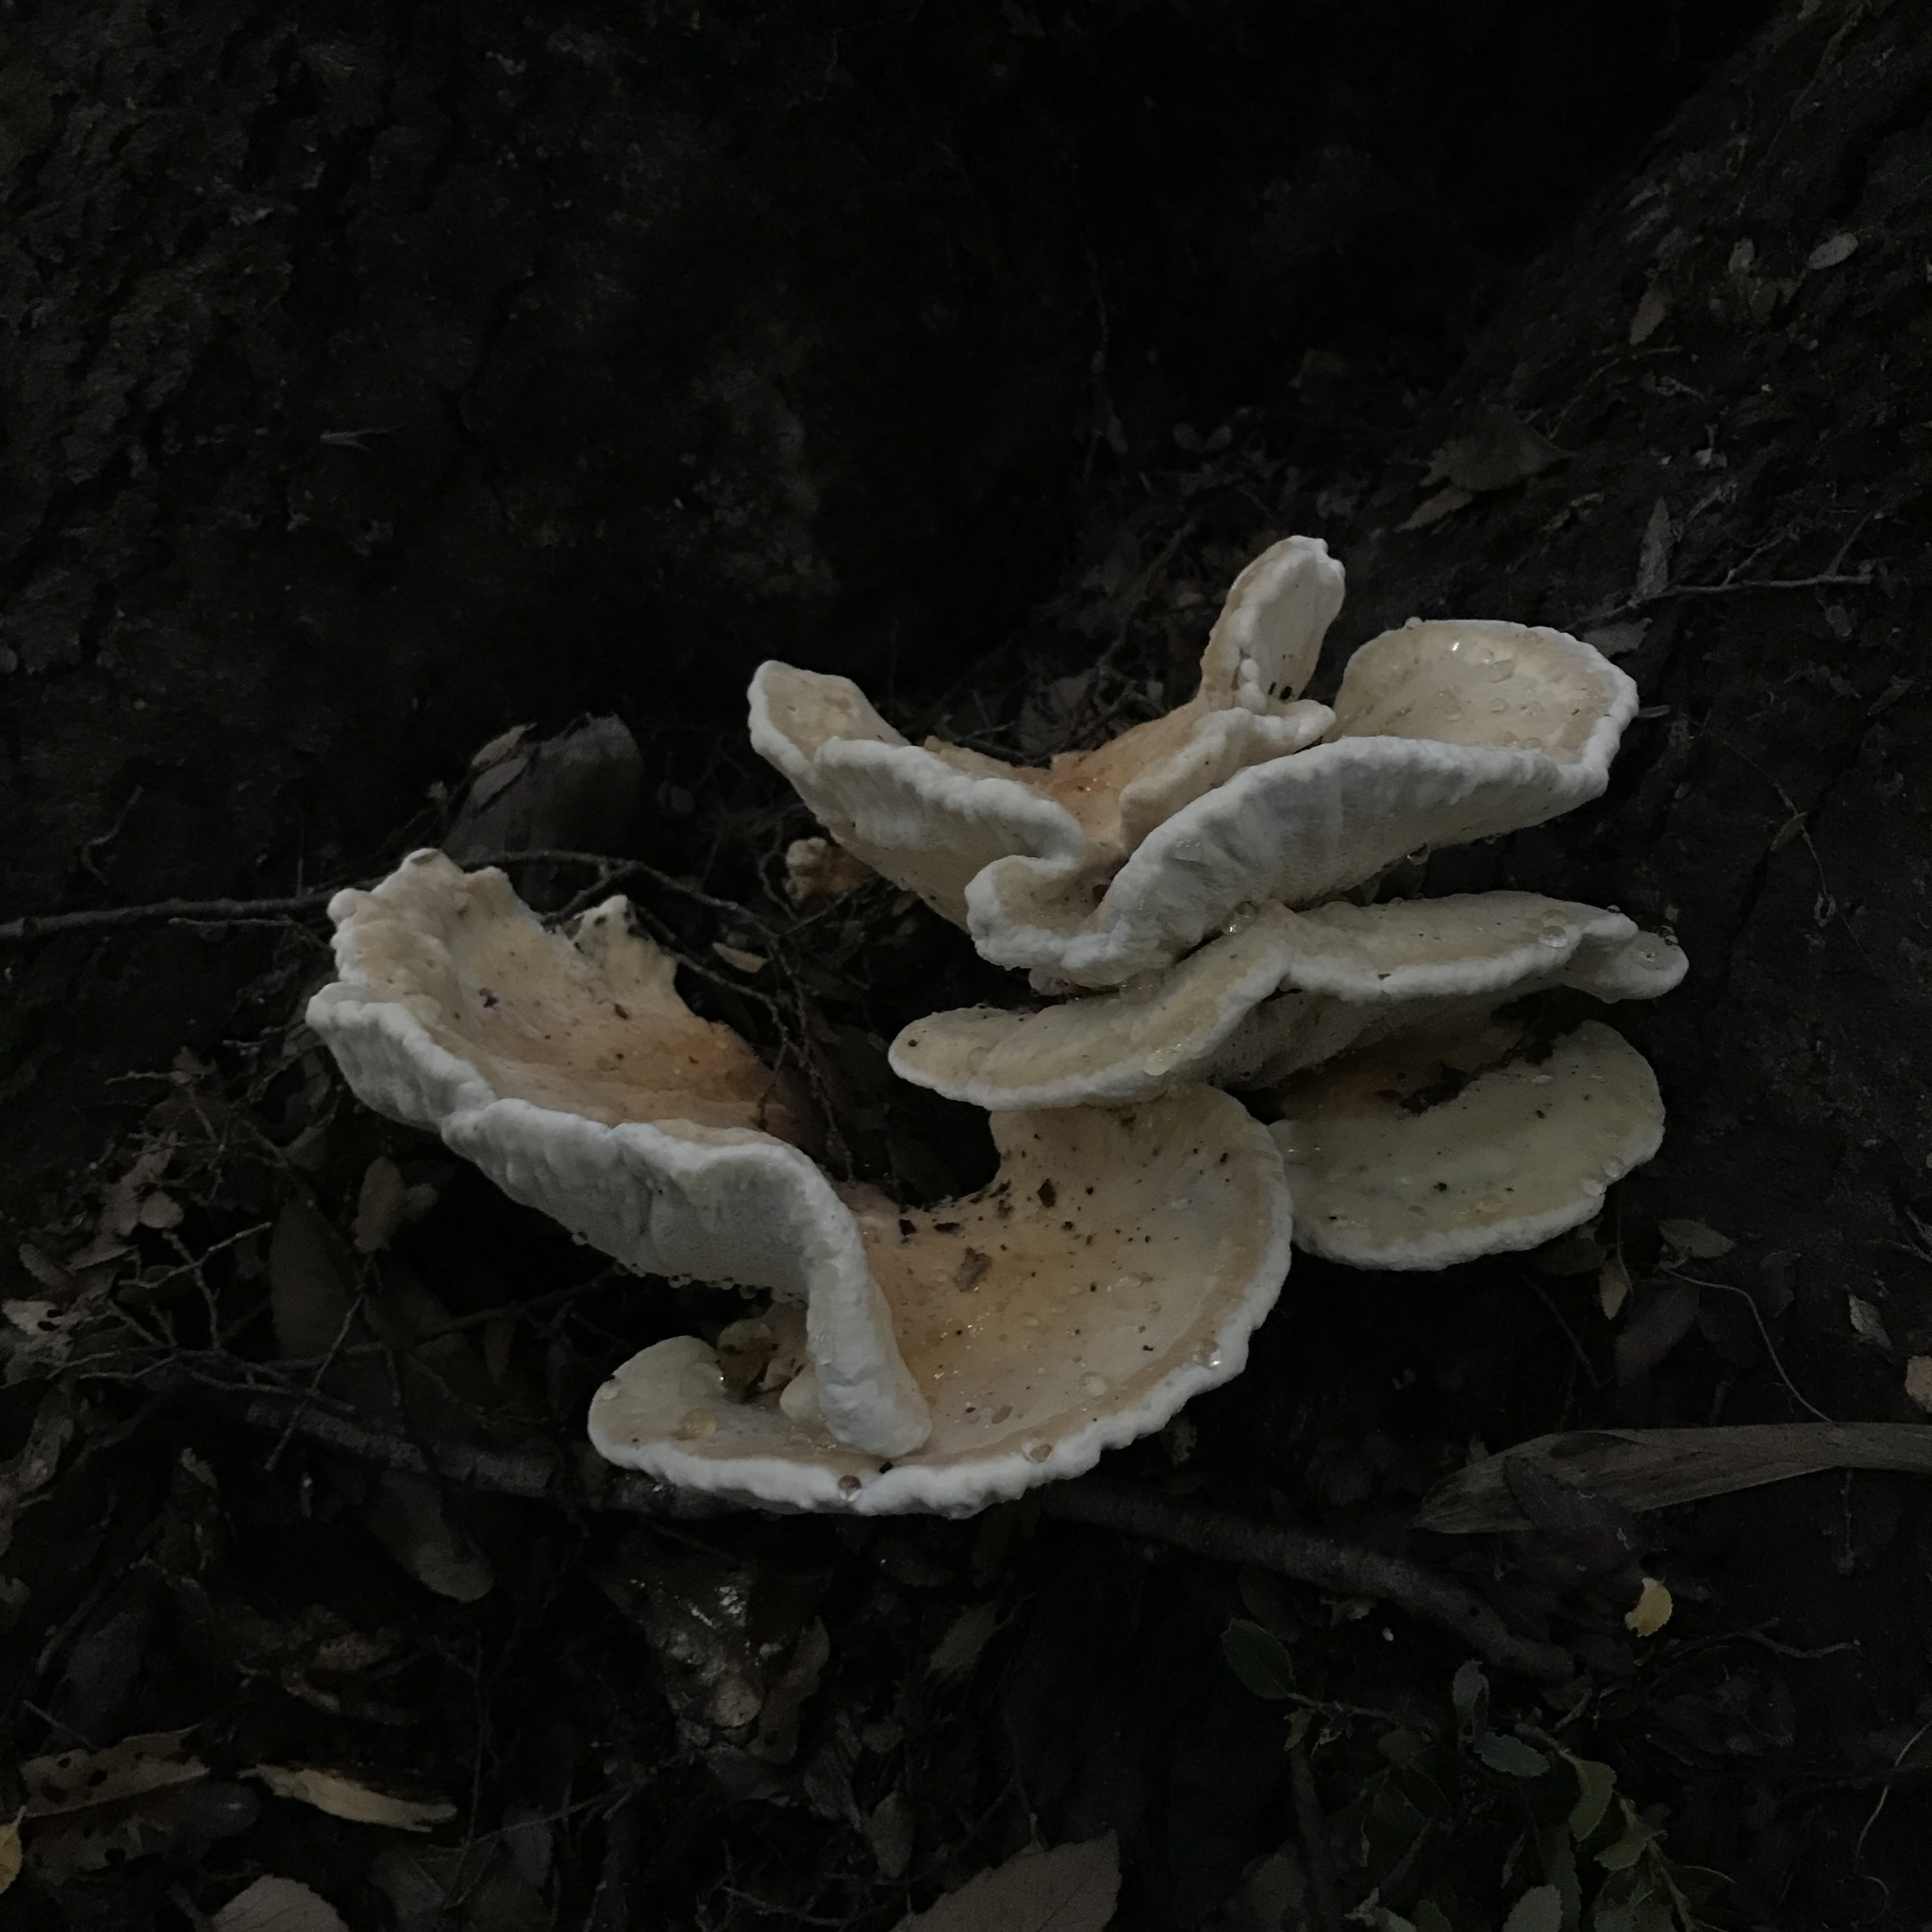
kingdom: Fungi
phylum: Basidiomycota
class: Agaricomycetes
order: Russulales
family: Bondarzewiaceae
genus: Bondarzewia
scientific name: Bondarzewia guaitecasensis
